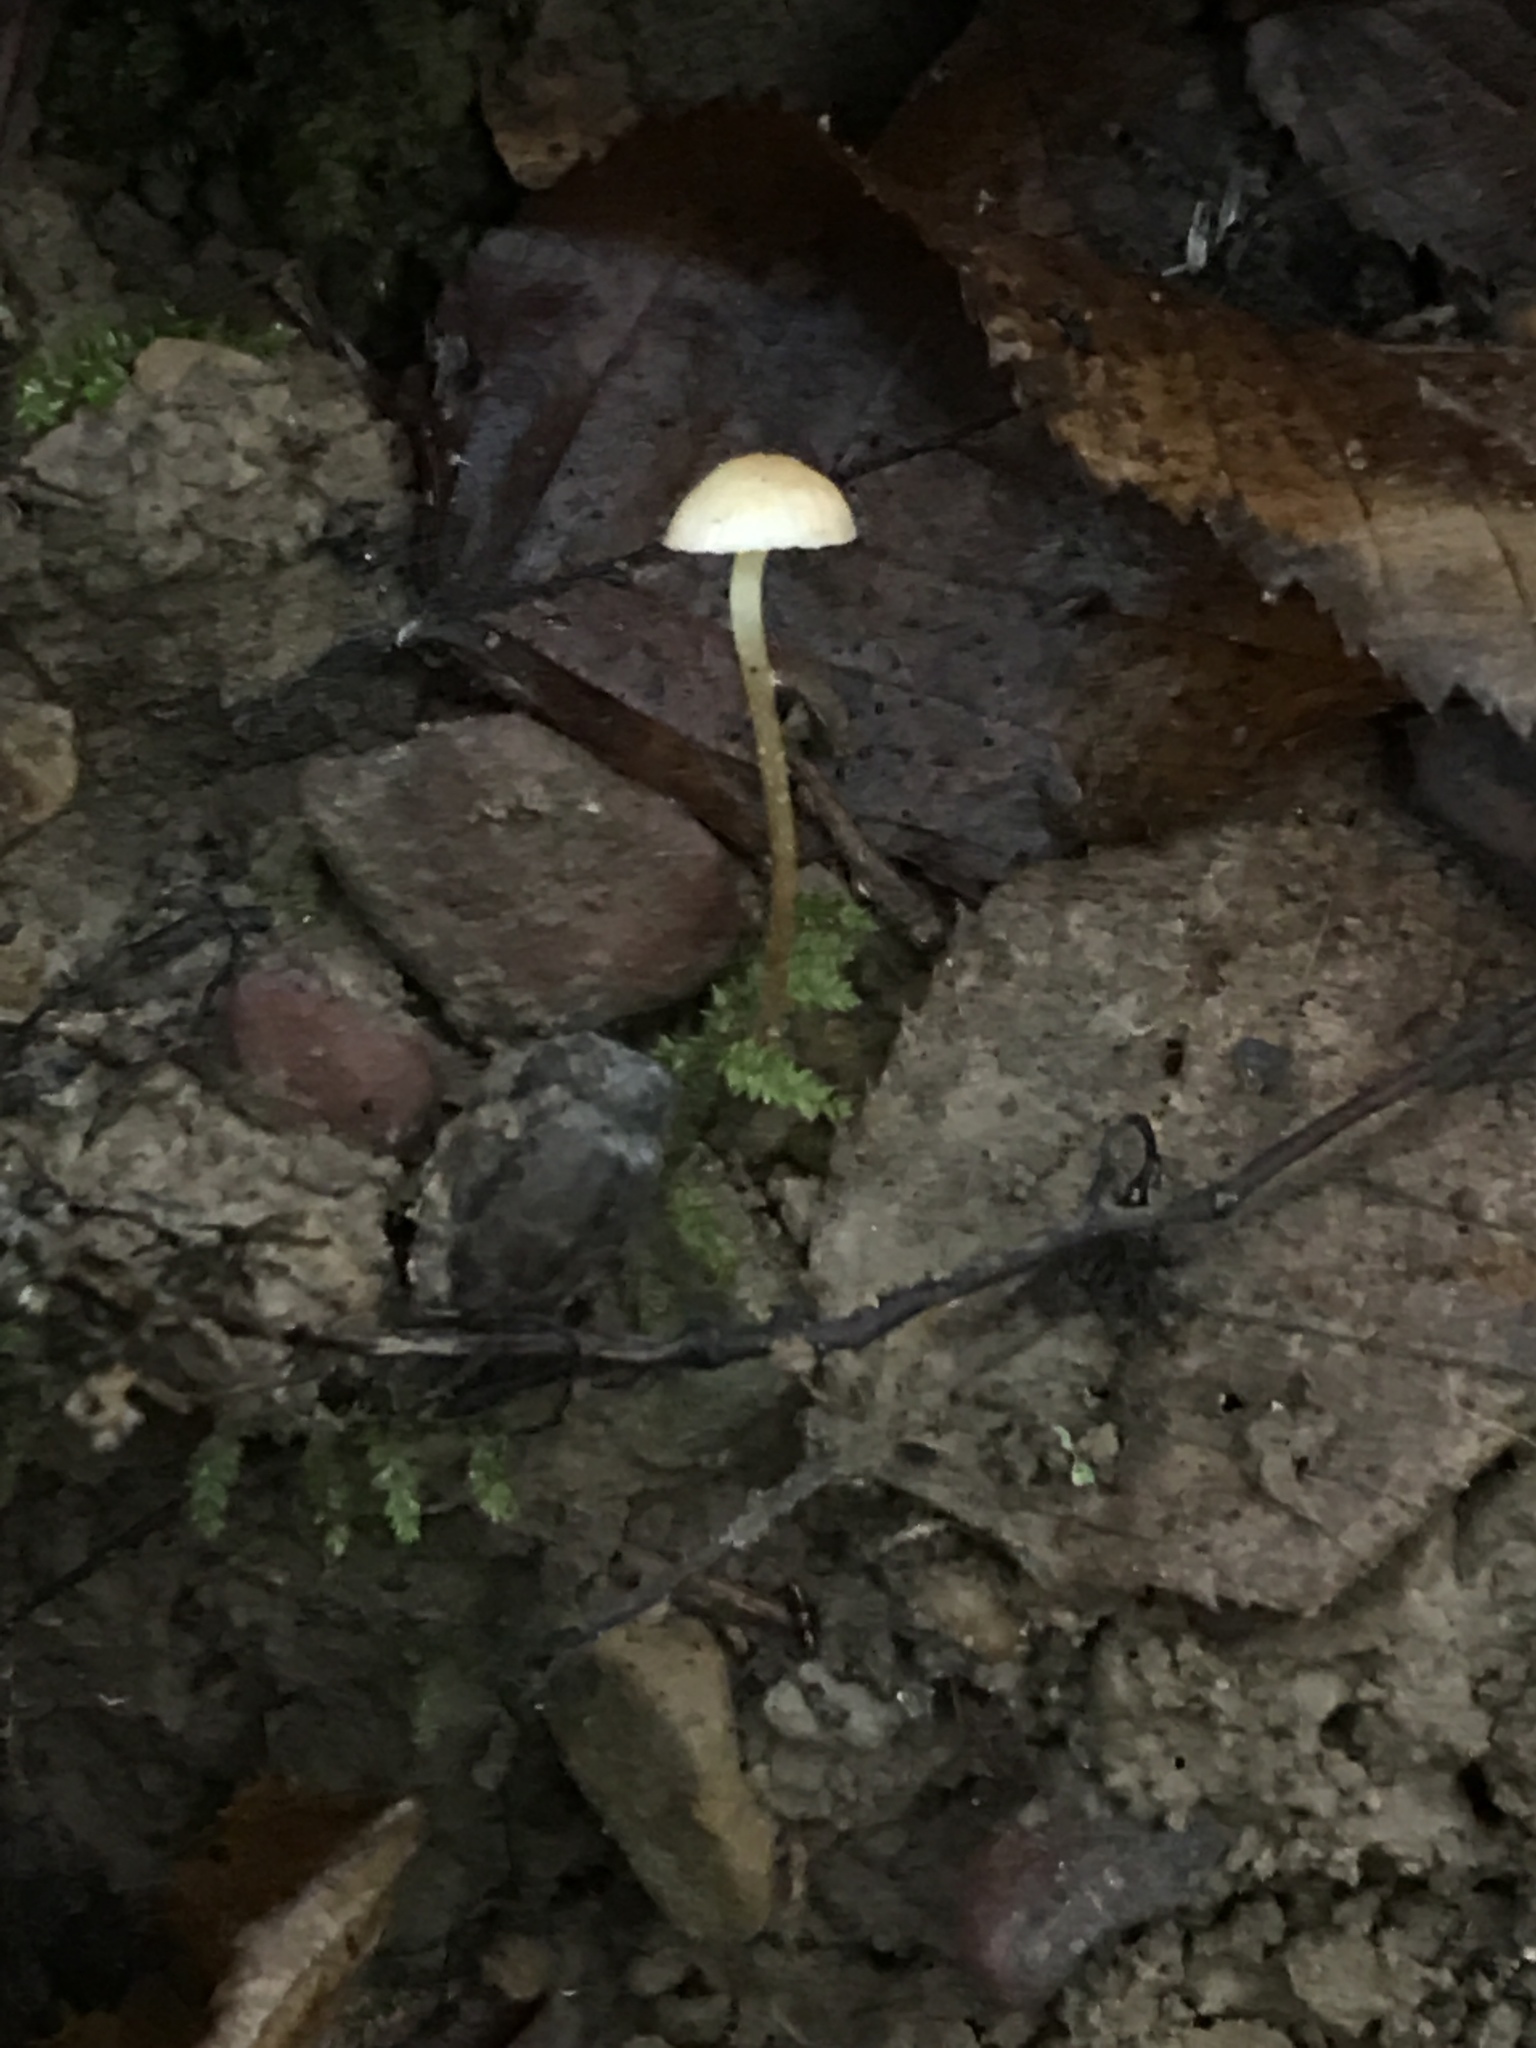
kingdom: Fungi
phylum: Basidiomycota
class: Agaricomycetes
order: Agaricales
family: Mycenaceae
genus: Mycena
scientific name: Mycena crocea
